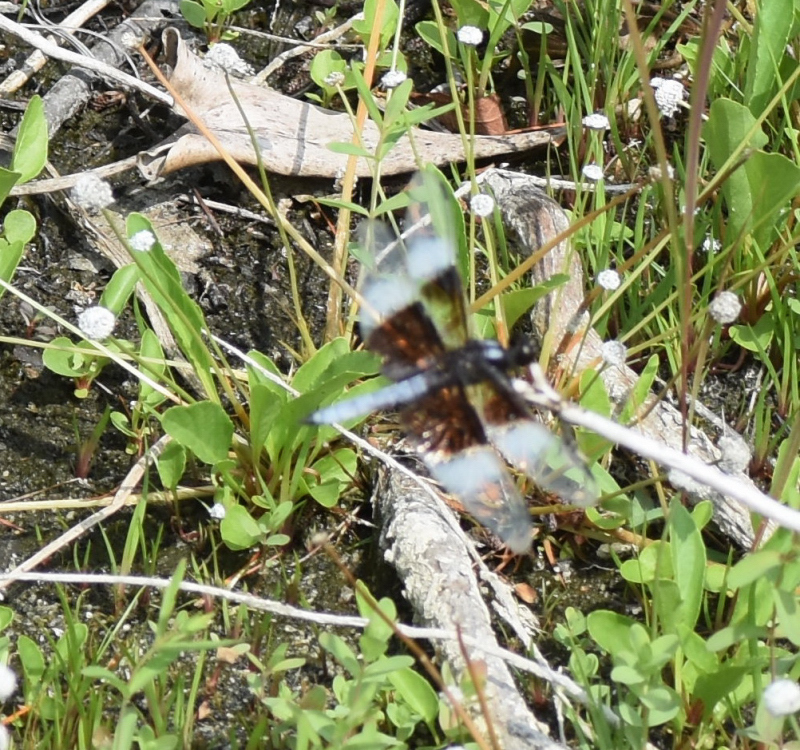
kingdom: Animalia
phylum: Arthropoda
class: Insecta
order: Odonata
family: Libellulidae
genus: Libellula
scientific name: Libellula luctuosa
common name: Widow skimmer
